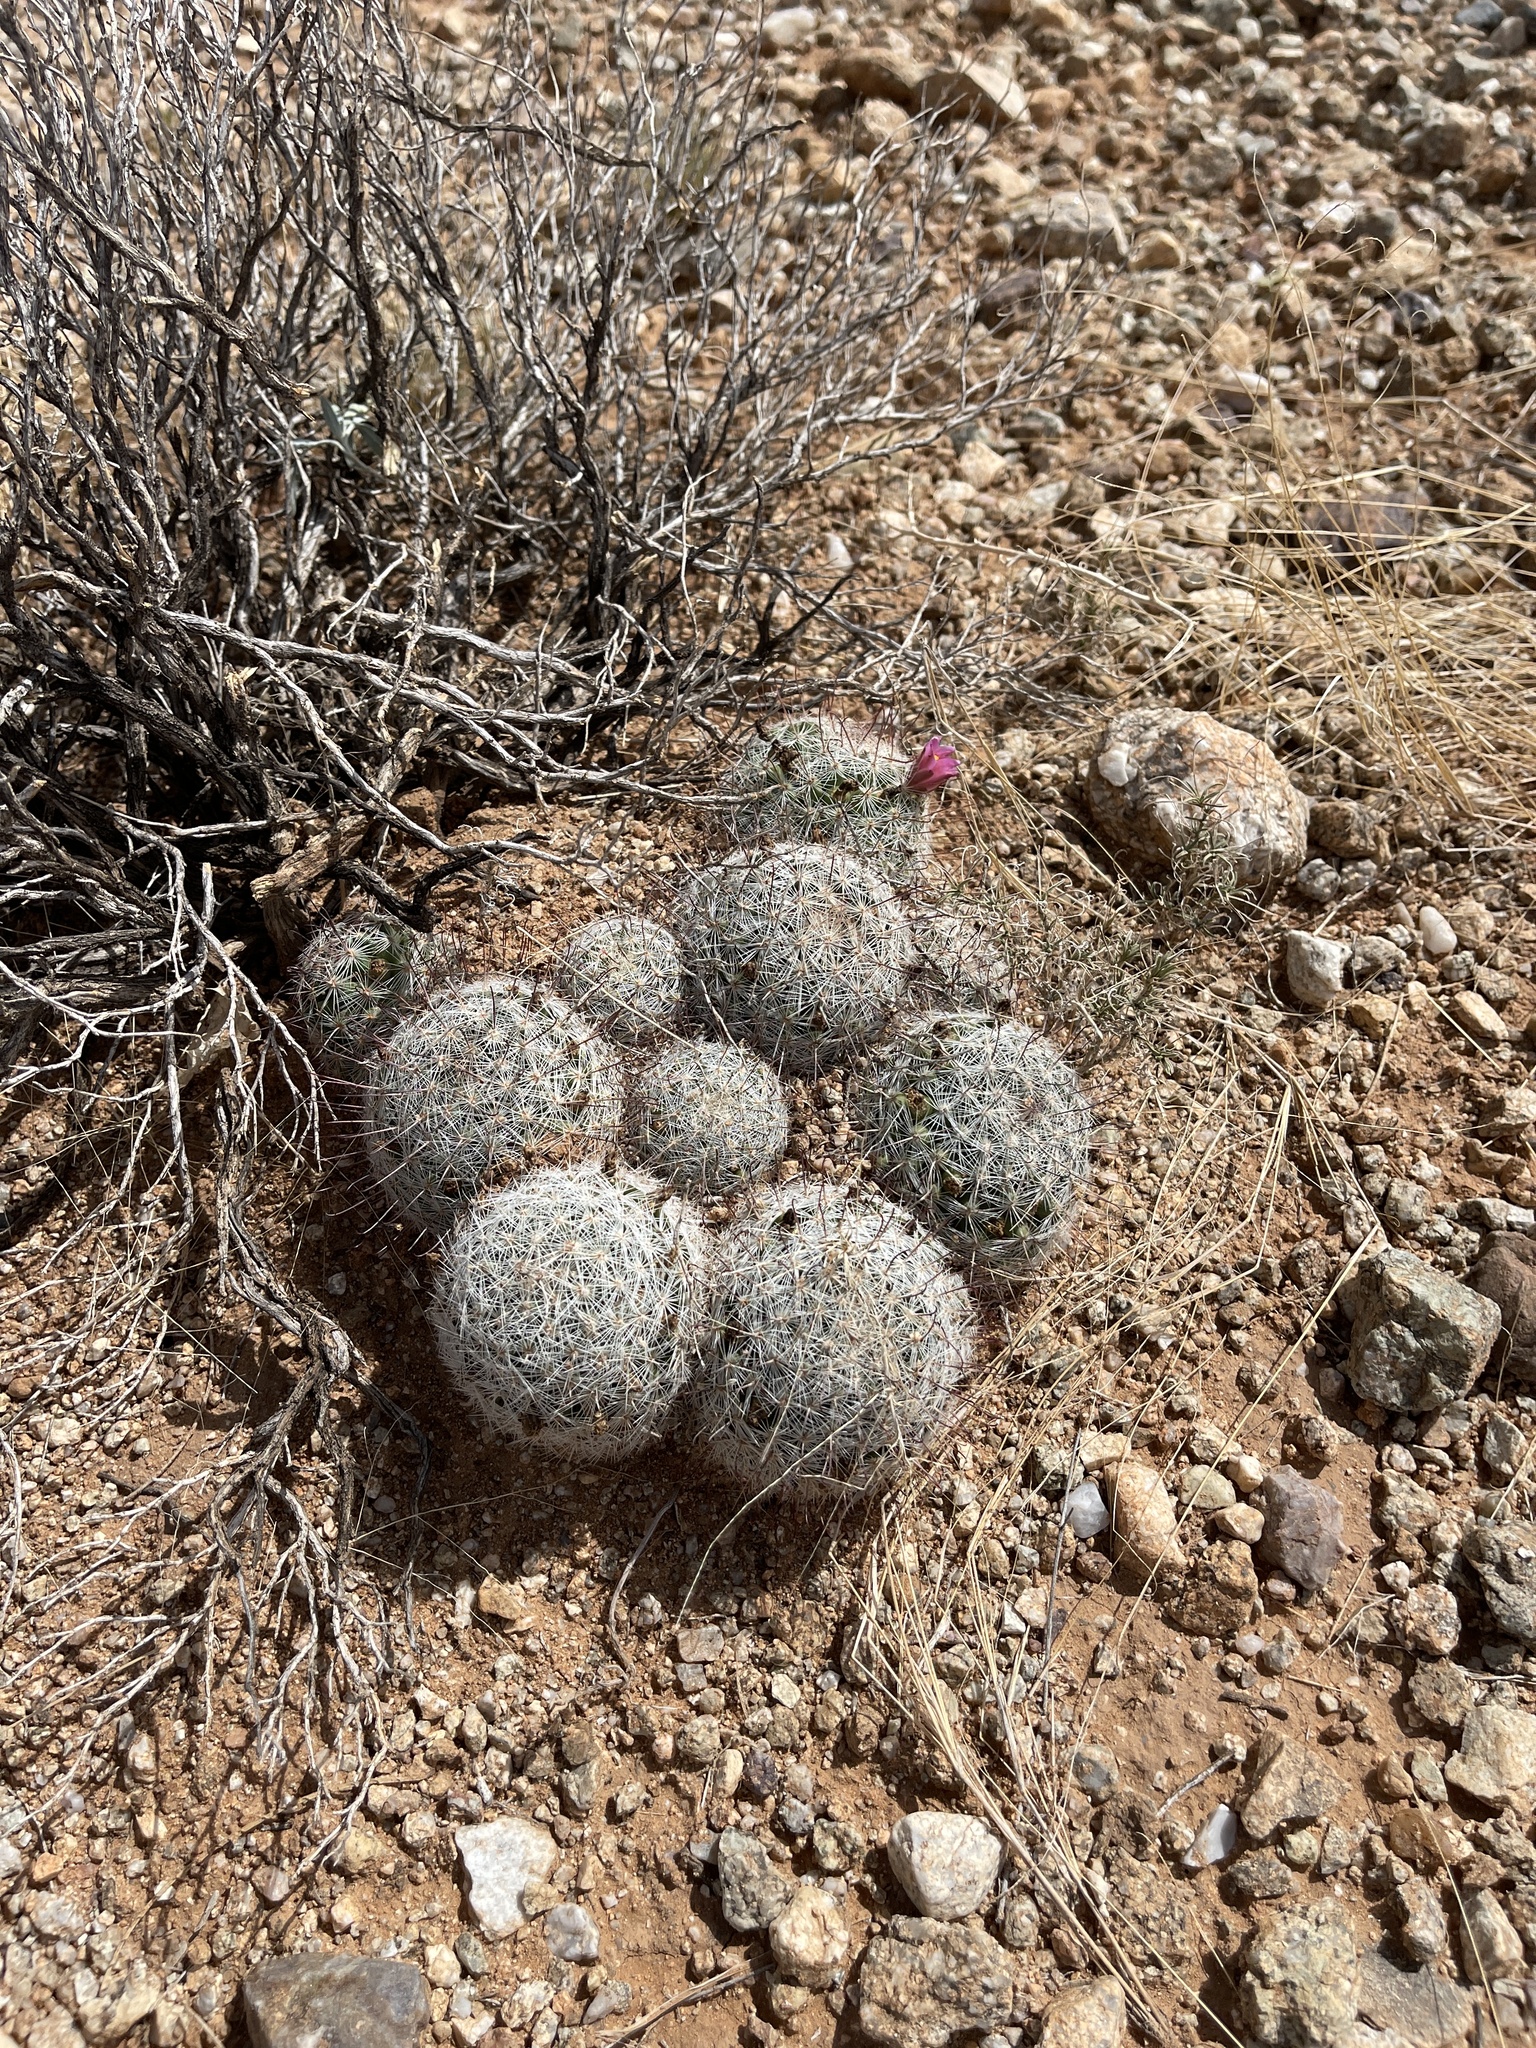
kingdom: Plantae
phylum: Tracheophyta
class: Magnoliopsida
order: Caryophyllales
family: Cactaceae
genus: Cochemiea
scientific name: Cochemiea grahamii
